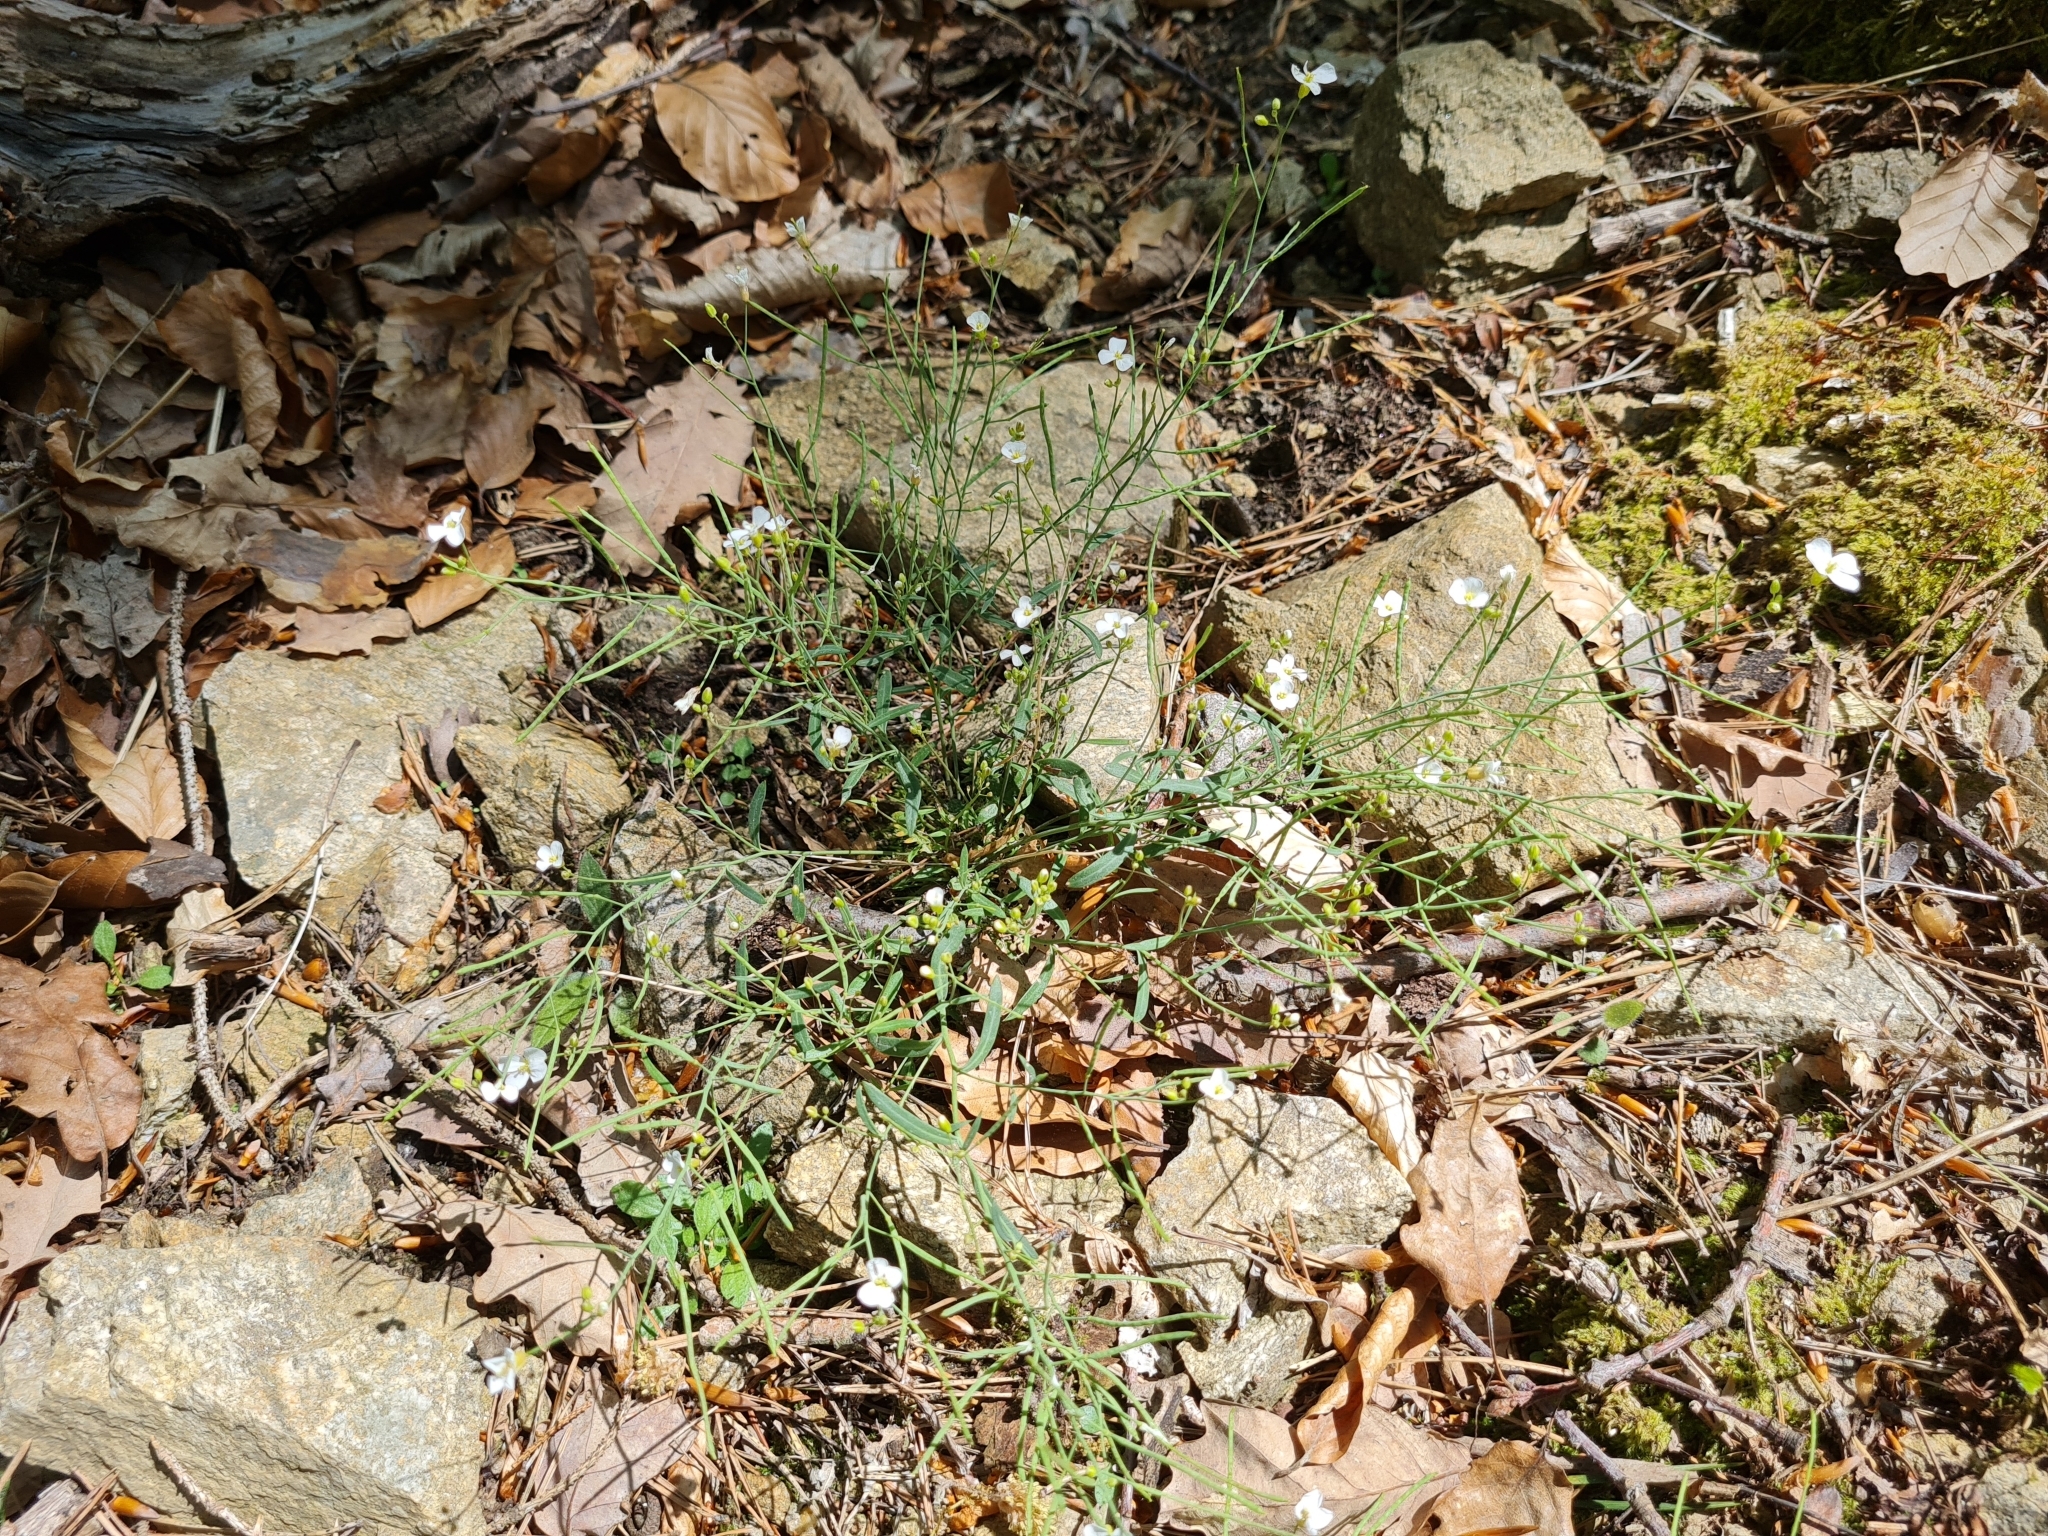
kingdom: Plantae
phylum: Tracheophyta
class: Magnoliopsida
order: Brassicales
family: Brassicaceae
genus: Arabidopsis
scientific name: Arabidopsis arenosa
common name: Sand rock-cress
